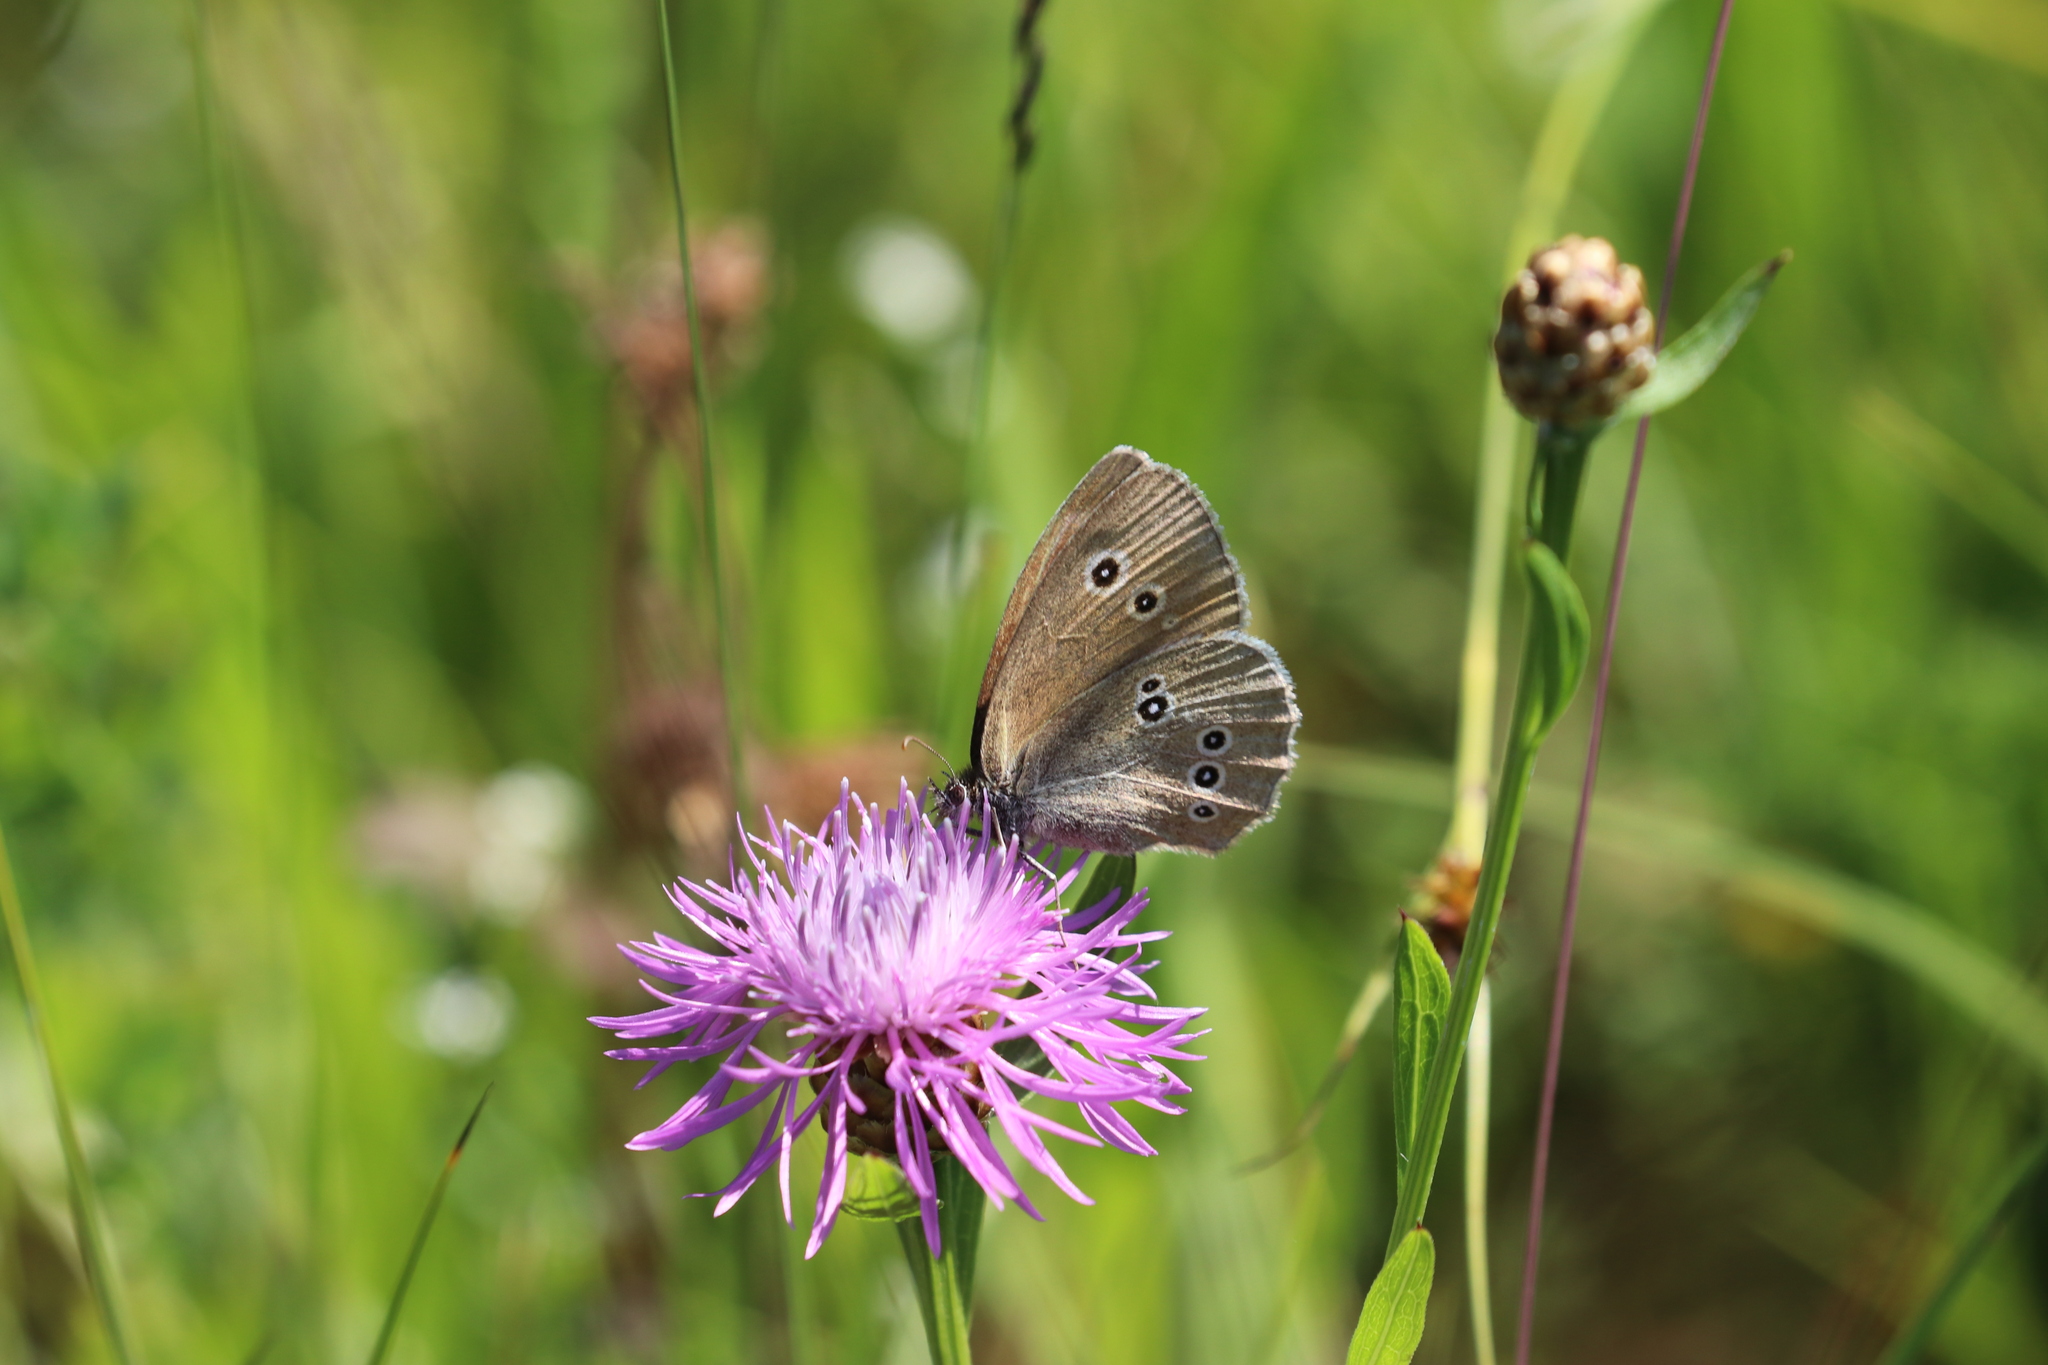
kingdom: Animalia
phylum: Arthropoda
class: Insecta
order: Lepidoptera
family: Nymphalidae
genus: Aphantopus
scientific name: Aphantopus hyperantus
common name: Ringlet
